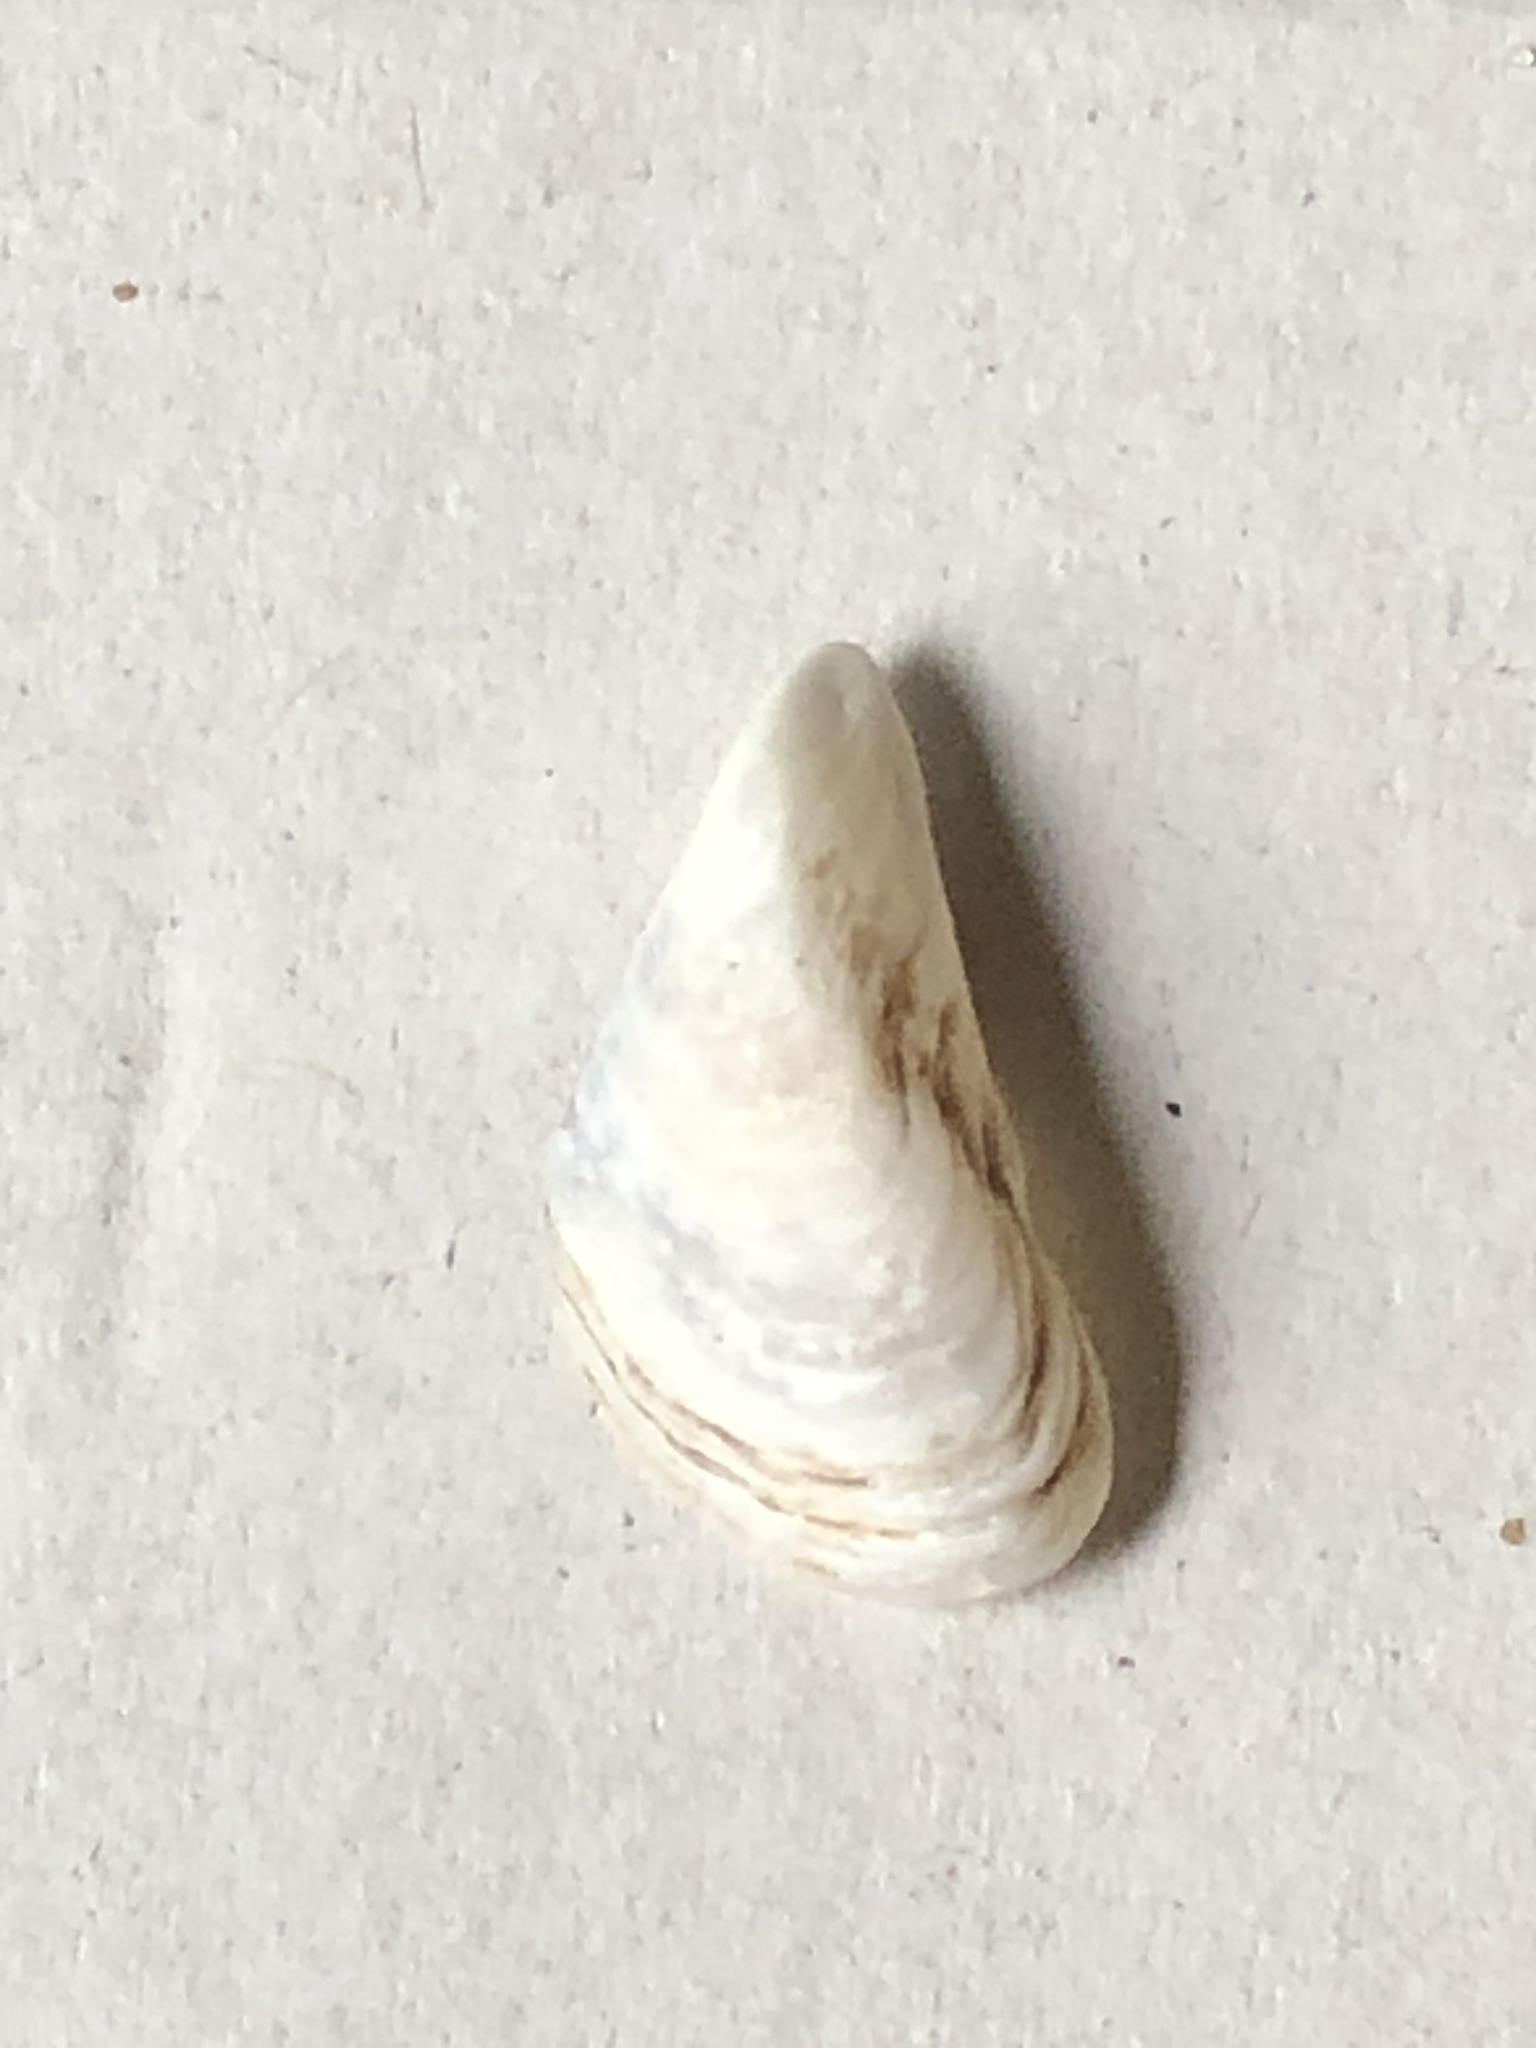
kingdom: Animalia
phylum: Mollusca
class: Bivalvia
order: Myida
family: Dreissenidae
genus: Dreissena
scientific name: Dreissena bugensis
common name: Quagga mussel
